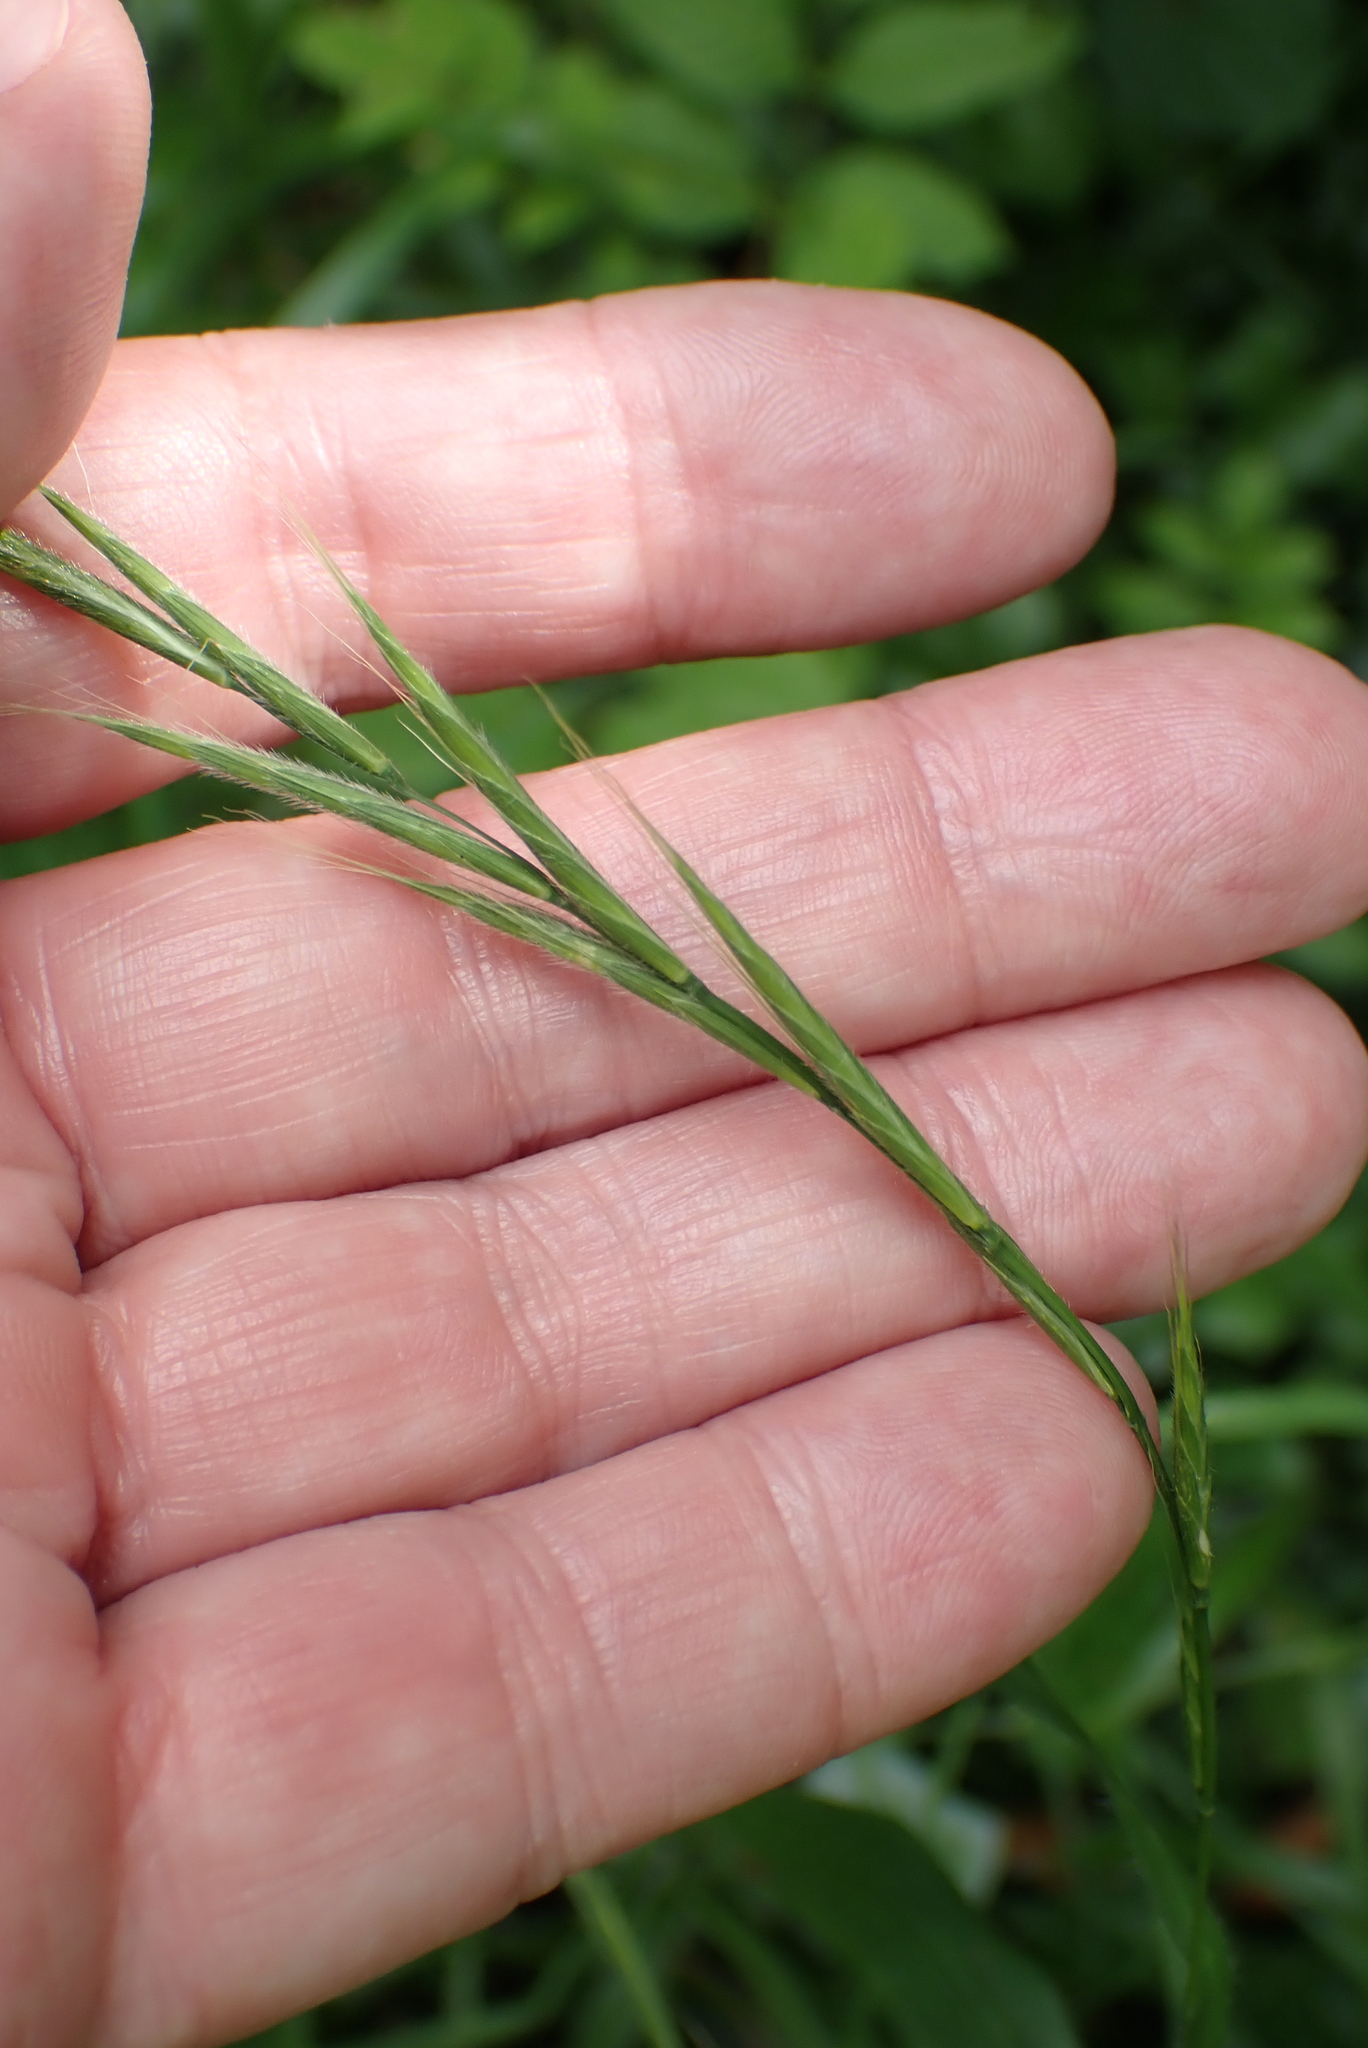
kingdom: Plantae
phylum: Tracheophyta
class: Liliopsida
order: Poales
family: Poaceae
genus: Brachypodium
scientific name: Brachypodium sylvaticum
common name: False-brome
